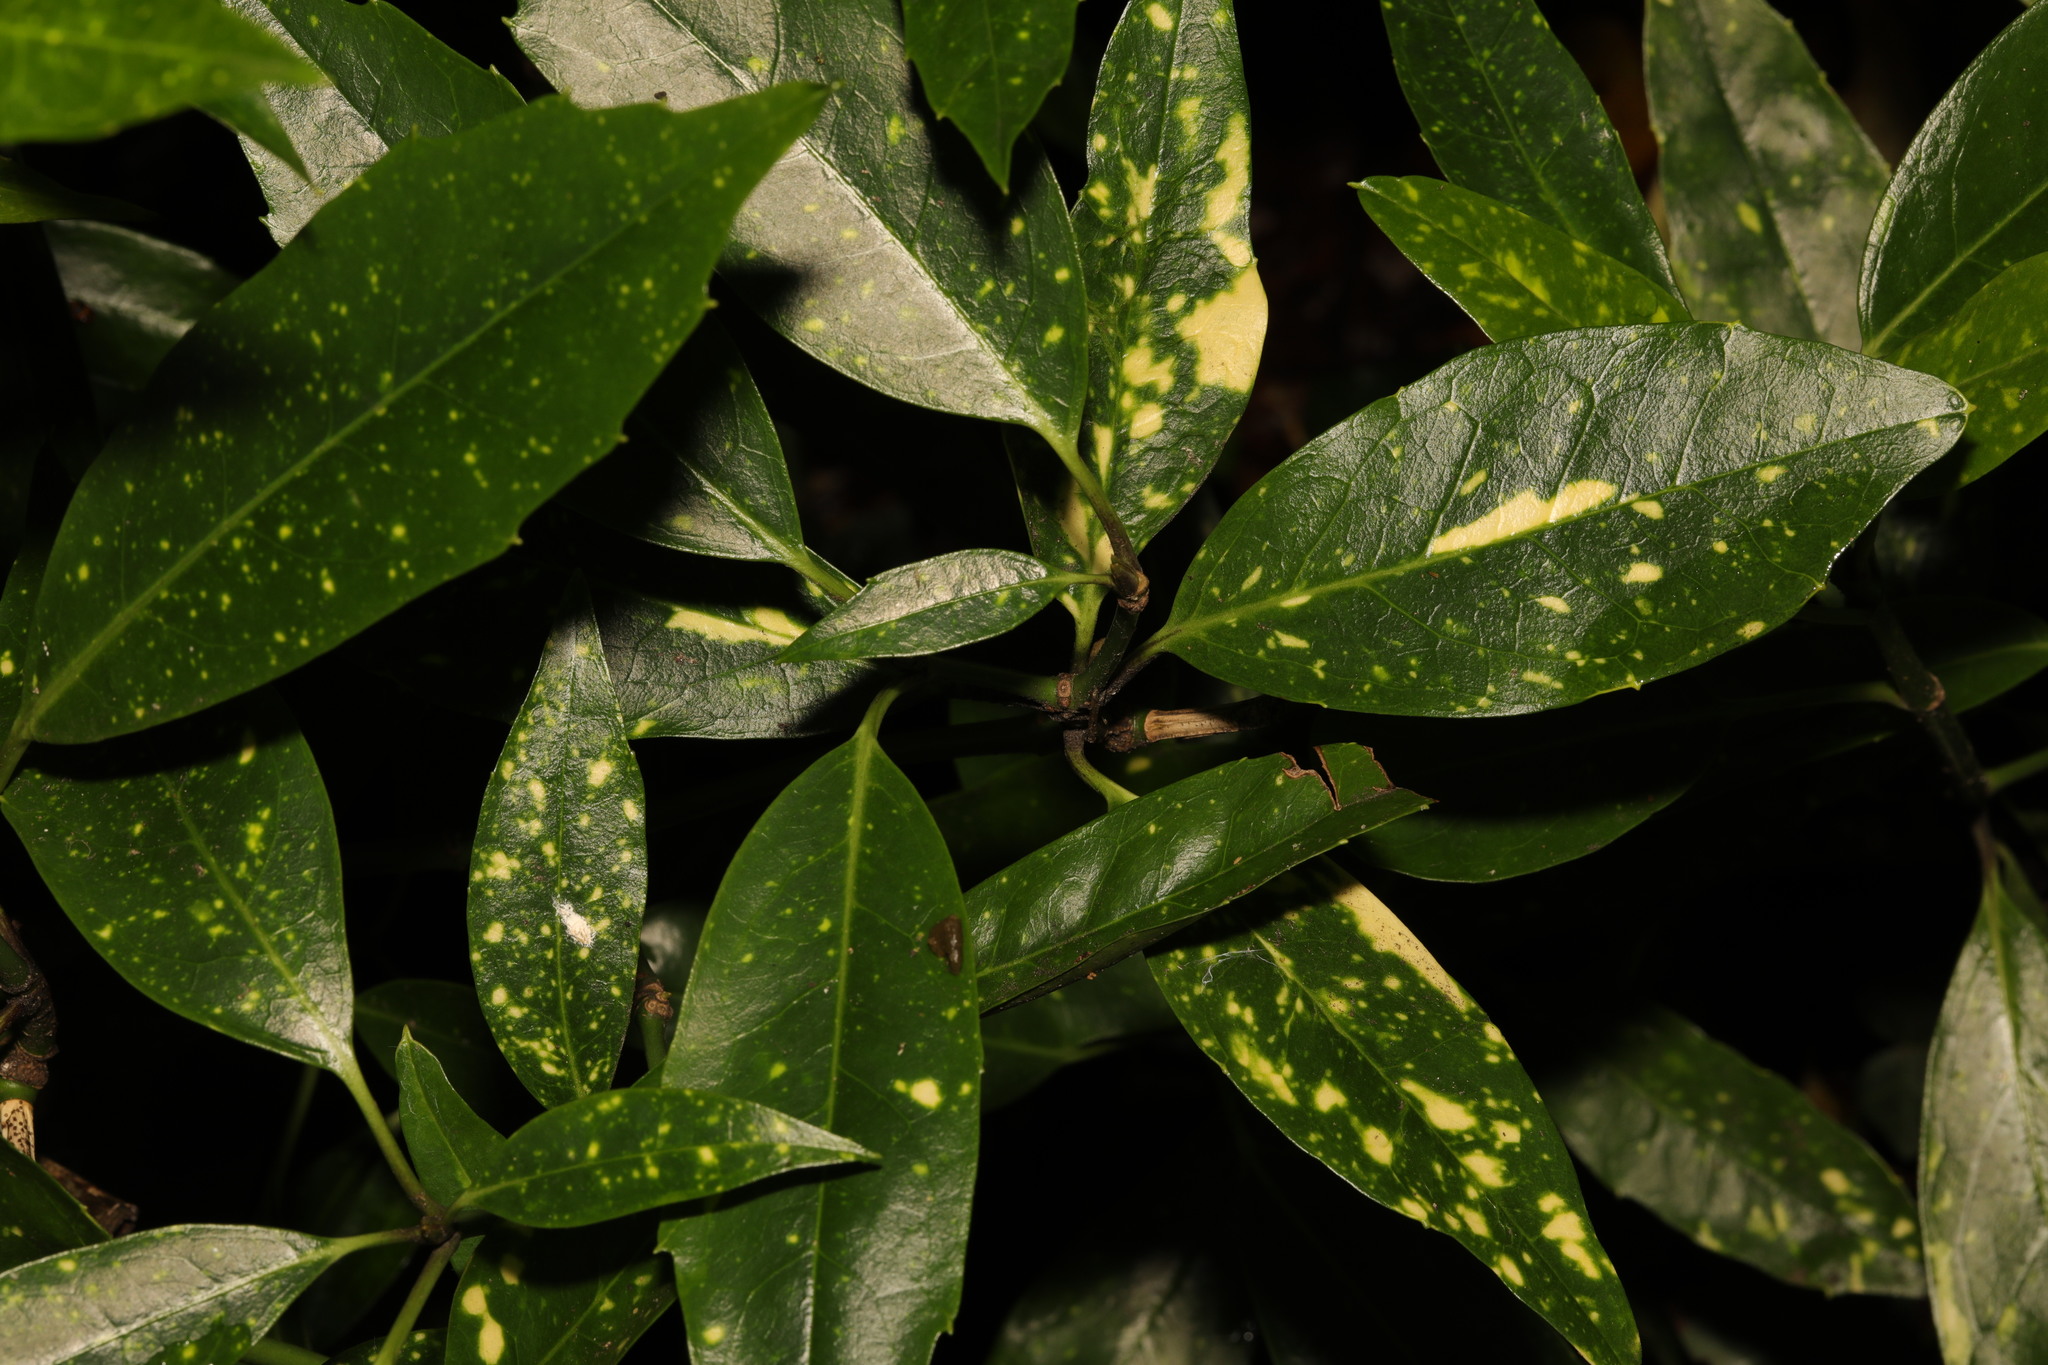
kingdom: Plantae
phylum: Tracheophyta
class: Magnoliopsida
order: Garryales
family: Garryaceae
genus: Aucuba
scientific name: Aucuba japonica
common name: Spotted-laurel
